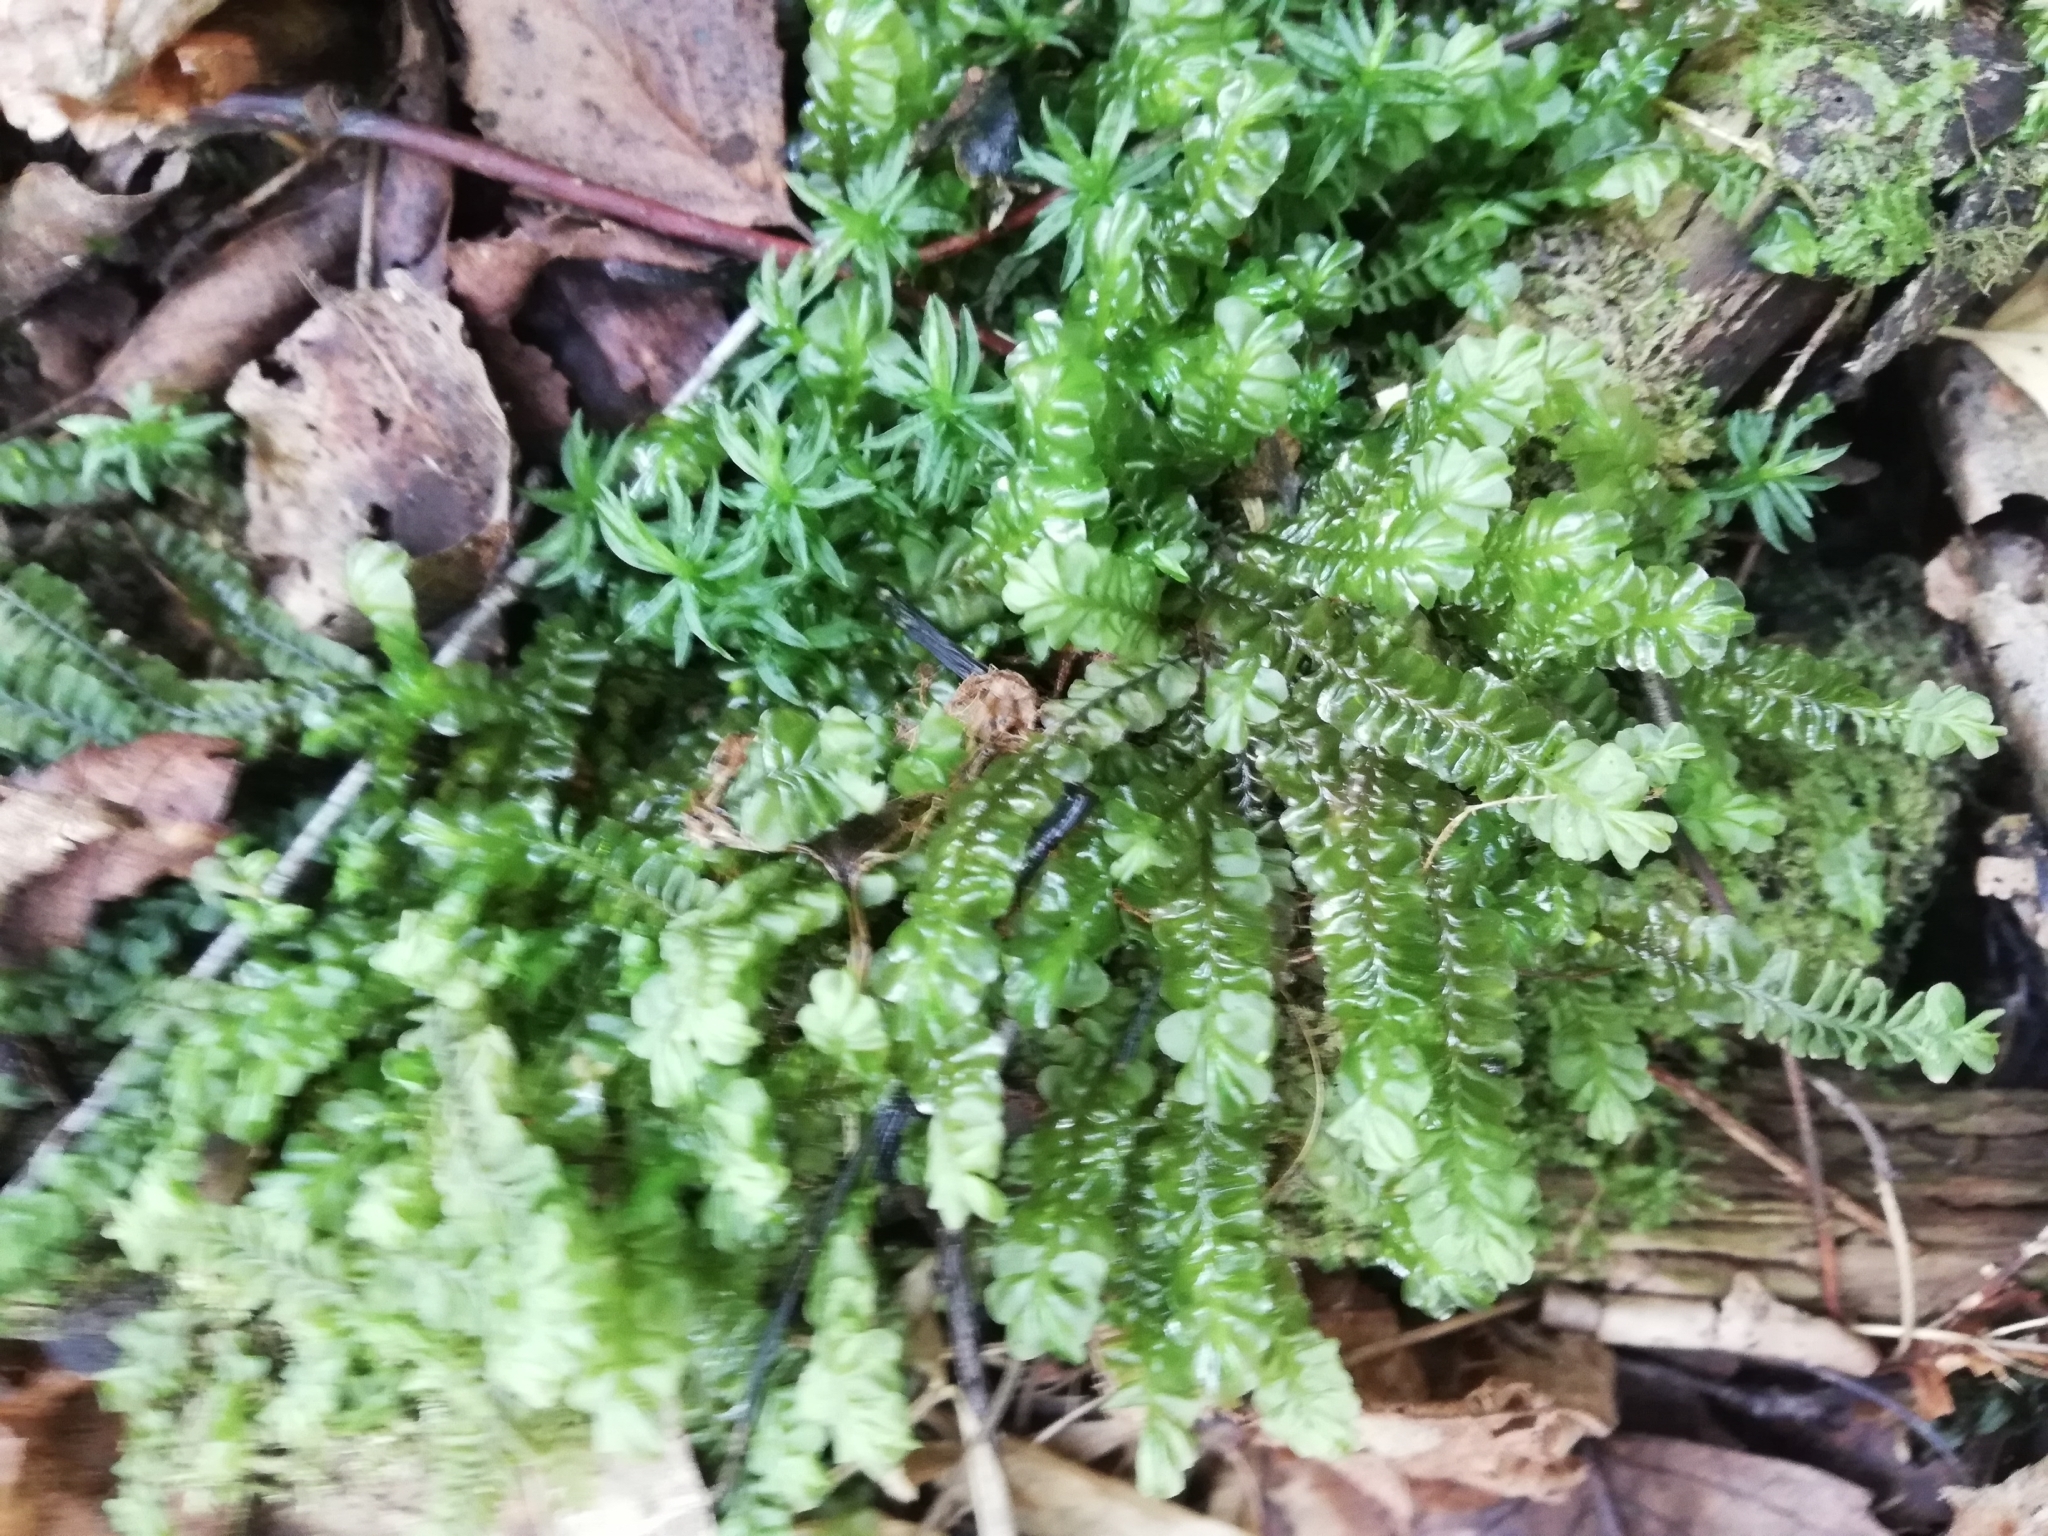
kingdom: Plantae
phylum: Marchantiophyta
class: Jungermanniopsida
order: Jungermanniales
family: Plagiochilaceae
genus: Plagiochila
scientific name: Plagiochila asplenioides
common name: Greater featherwort
